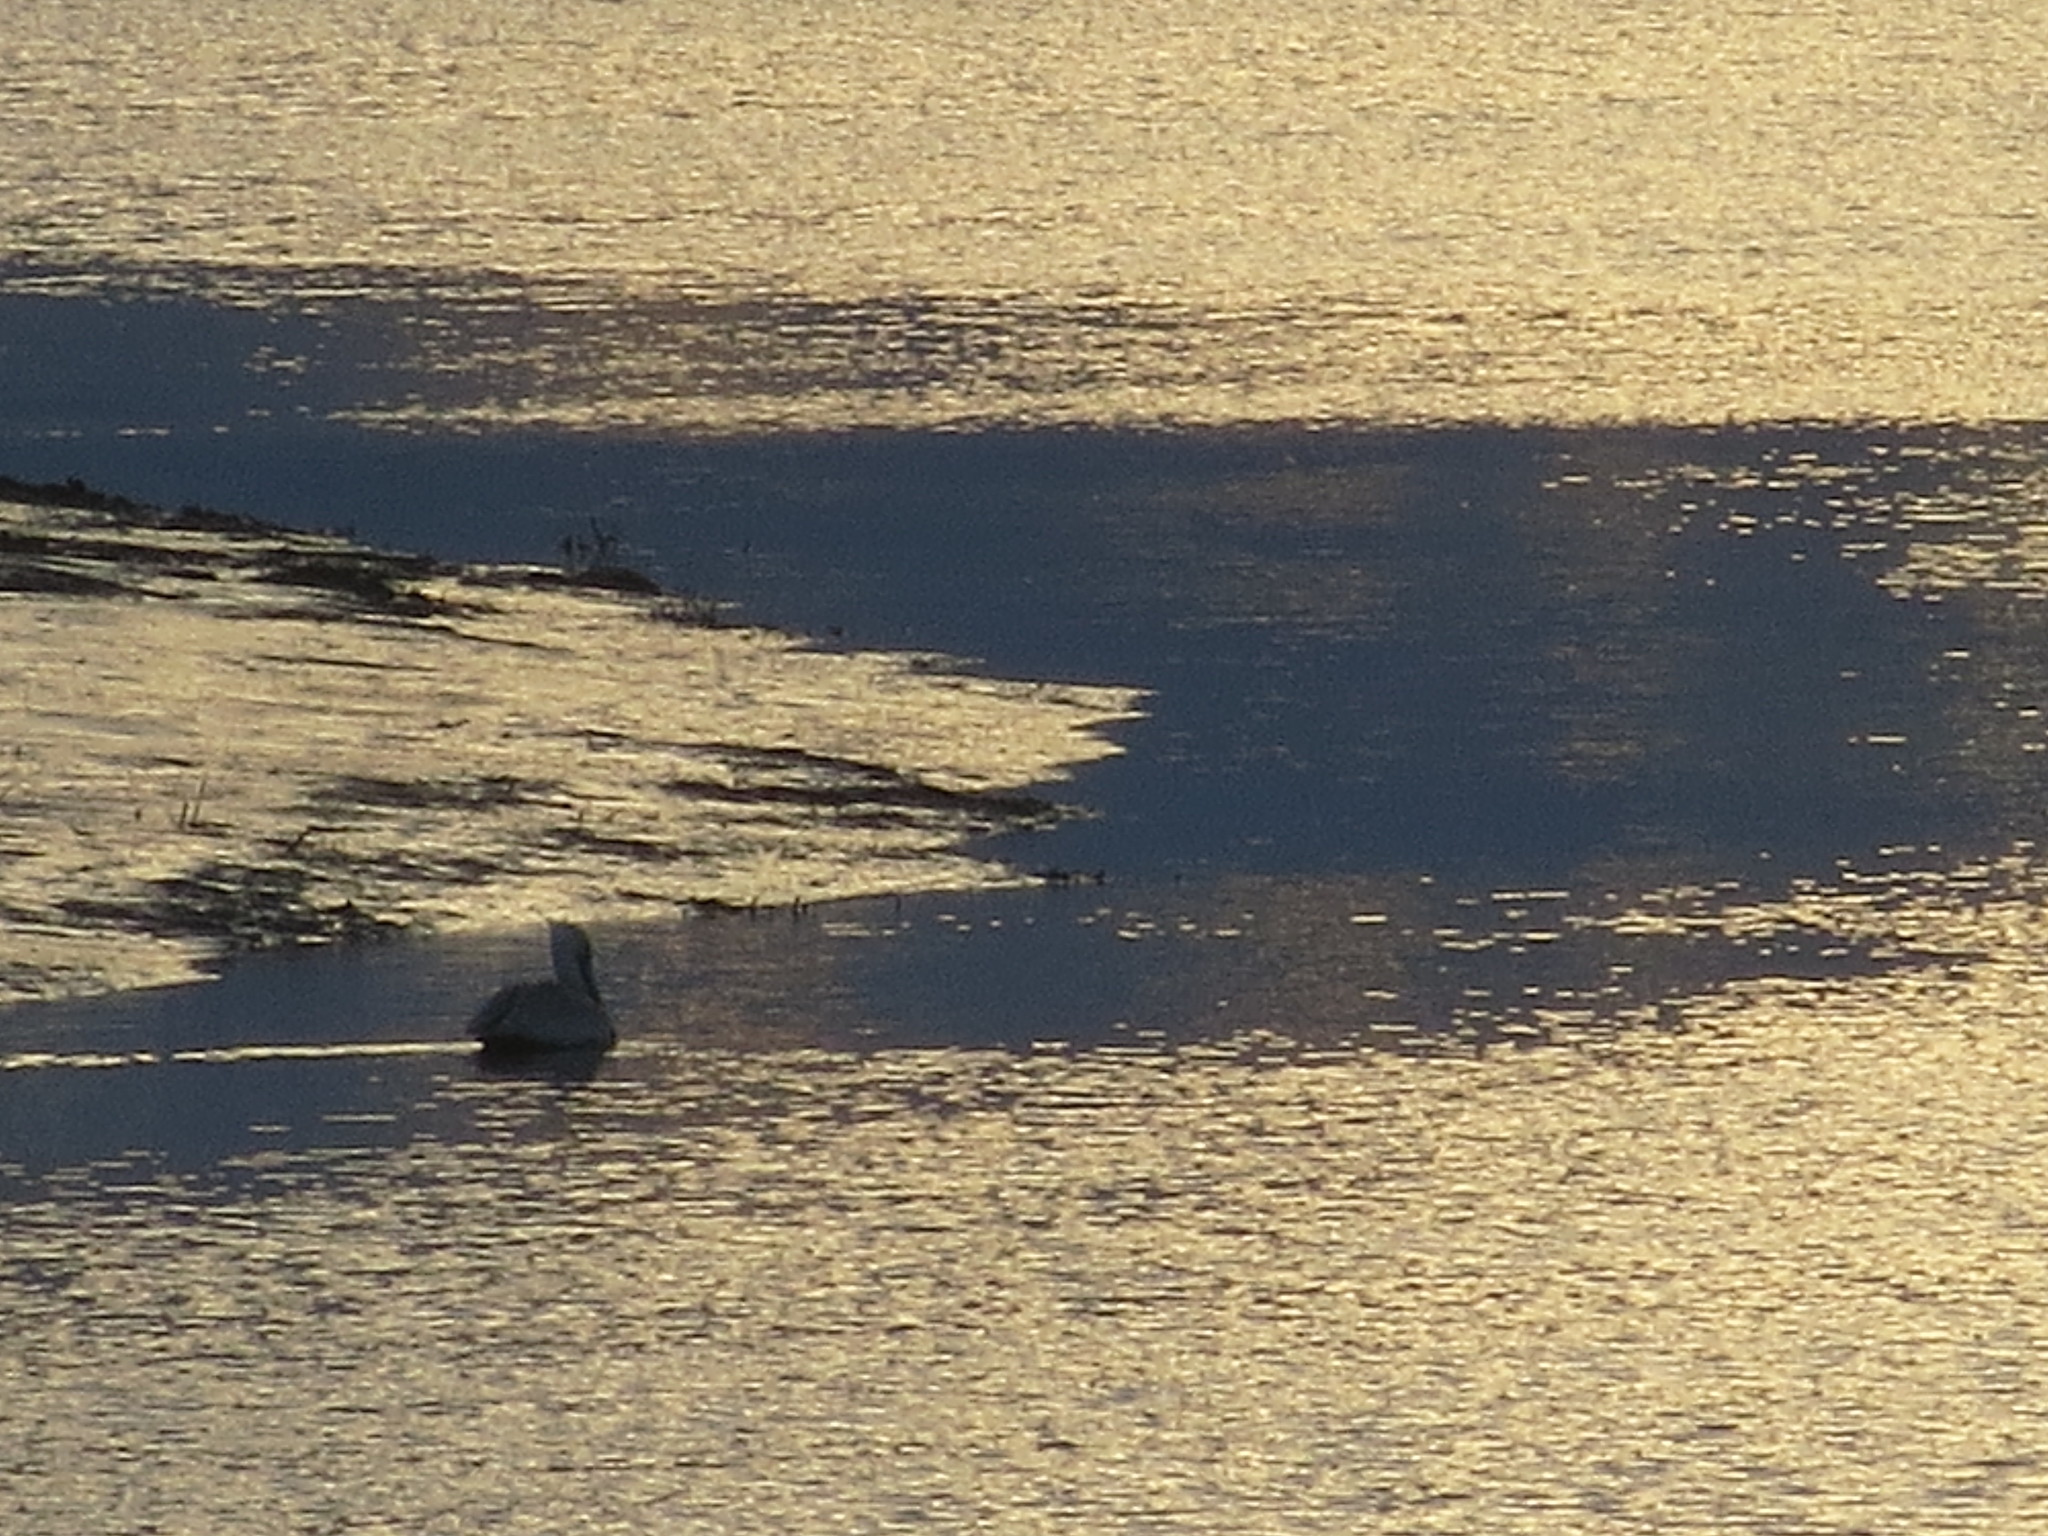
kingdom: Animalia
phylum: Chordata
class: Aves
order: Pelecaniformes
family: Pelecanidae
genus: Pelecanus
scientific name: Pelecanus occidentalis
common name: Brown pelican
